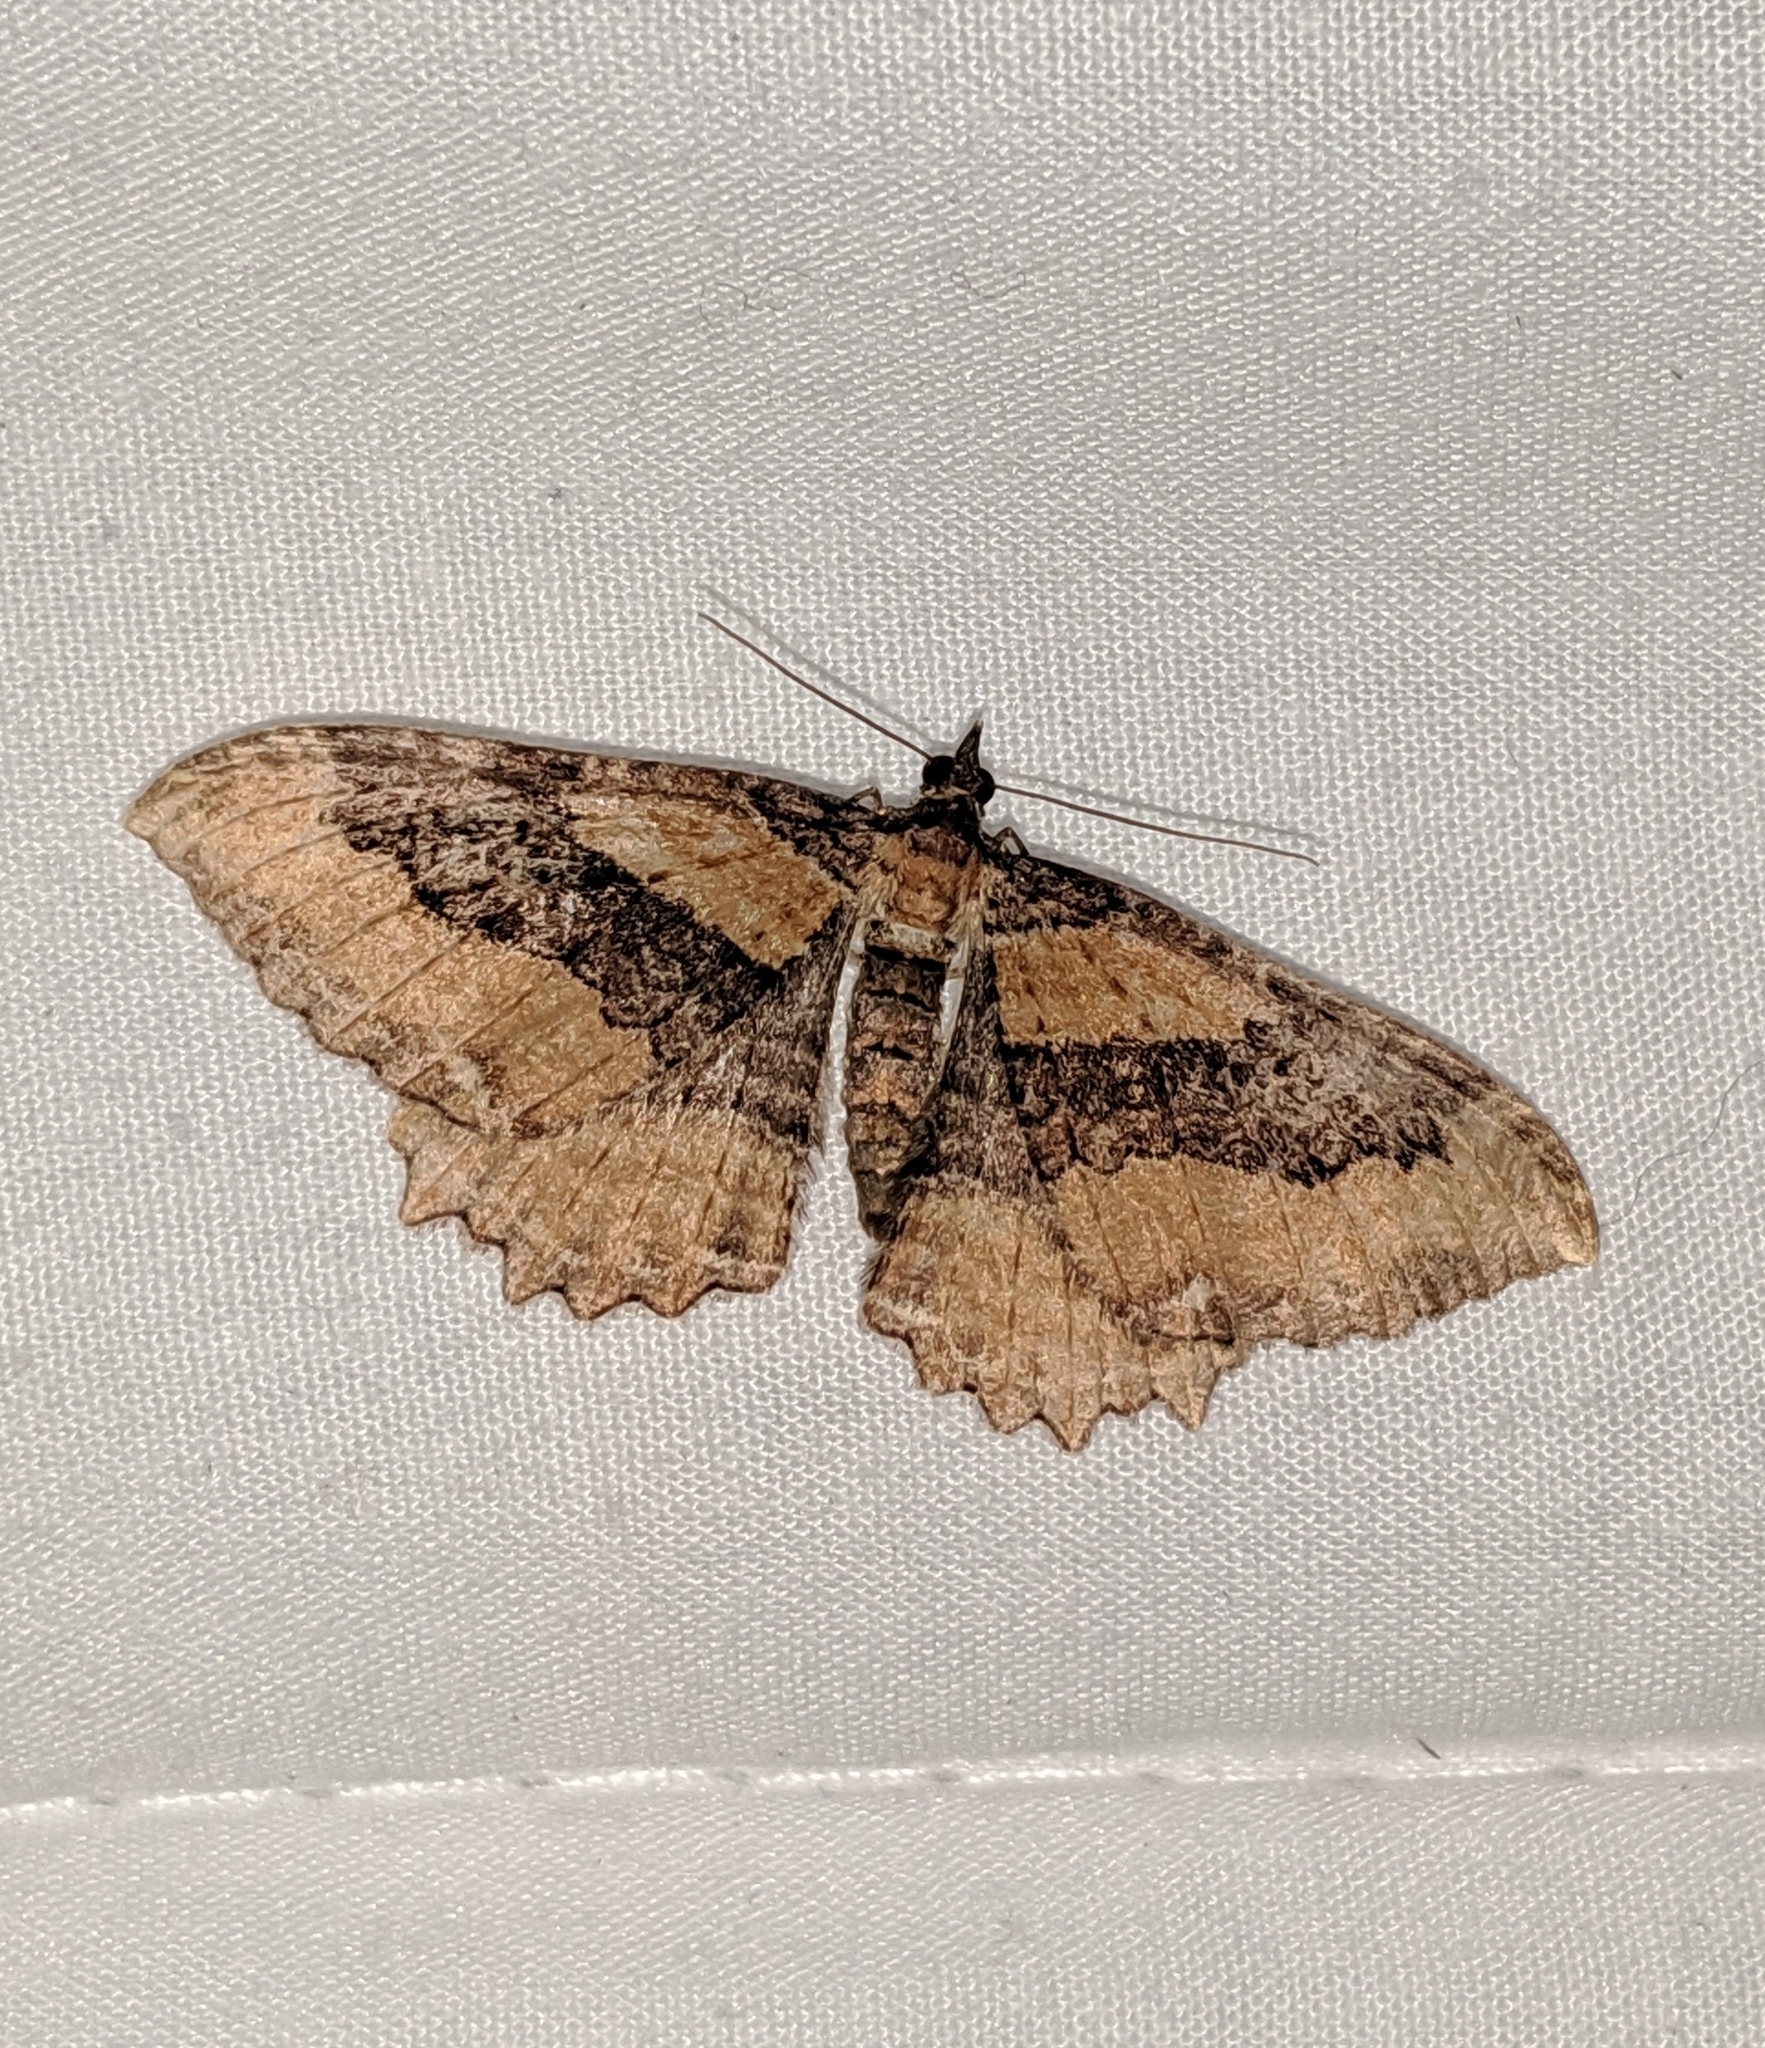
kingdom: Animalia
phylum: Arthropoda
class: Insecta
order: Lepidoptera
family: Geometridae
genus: Rheumaptera
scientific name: Rheumaptera
